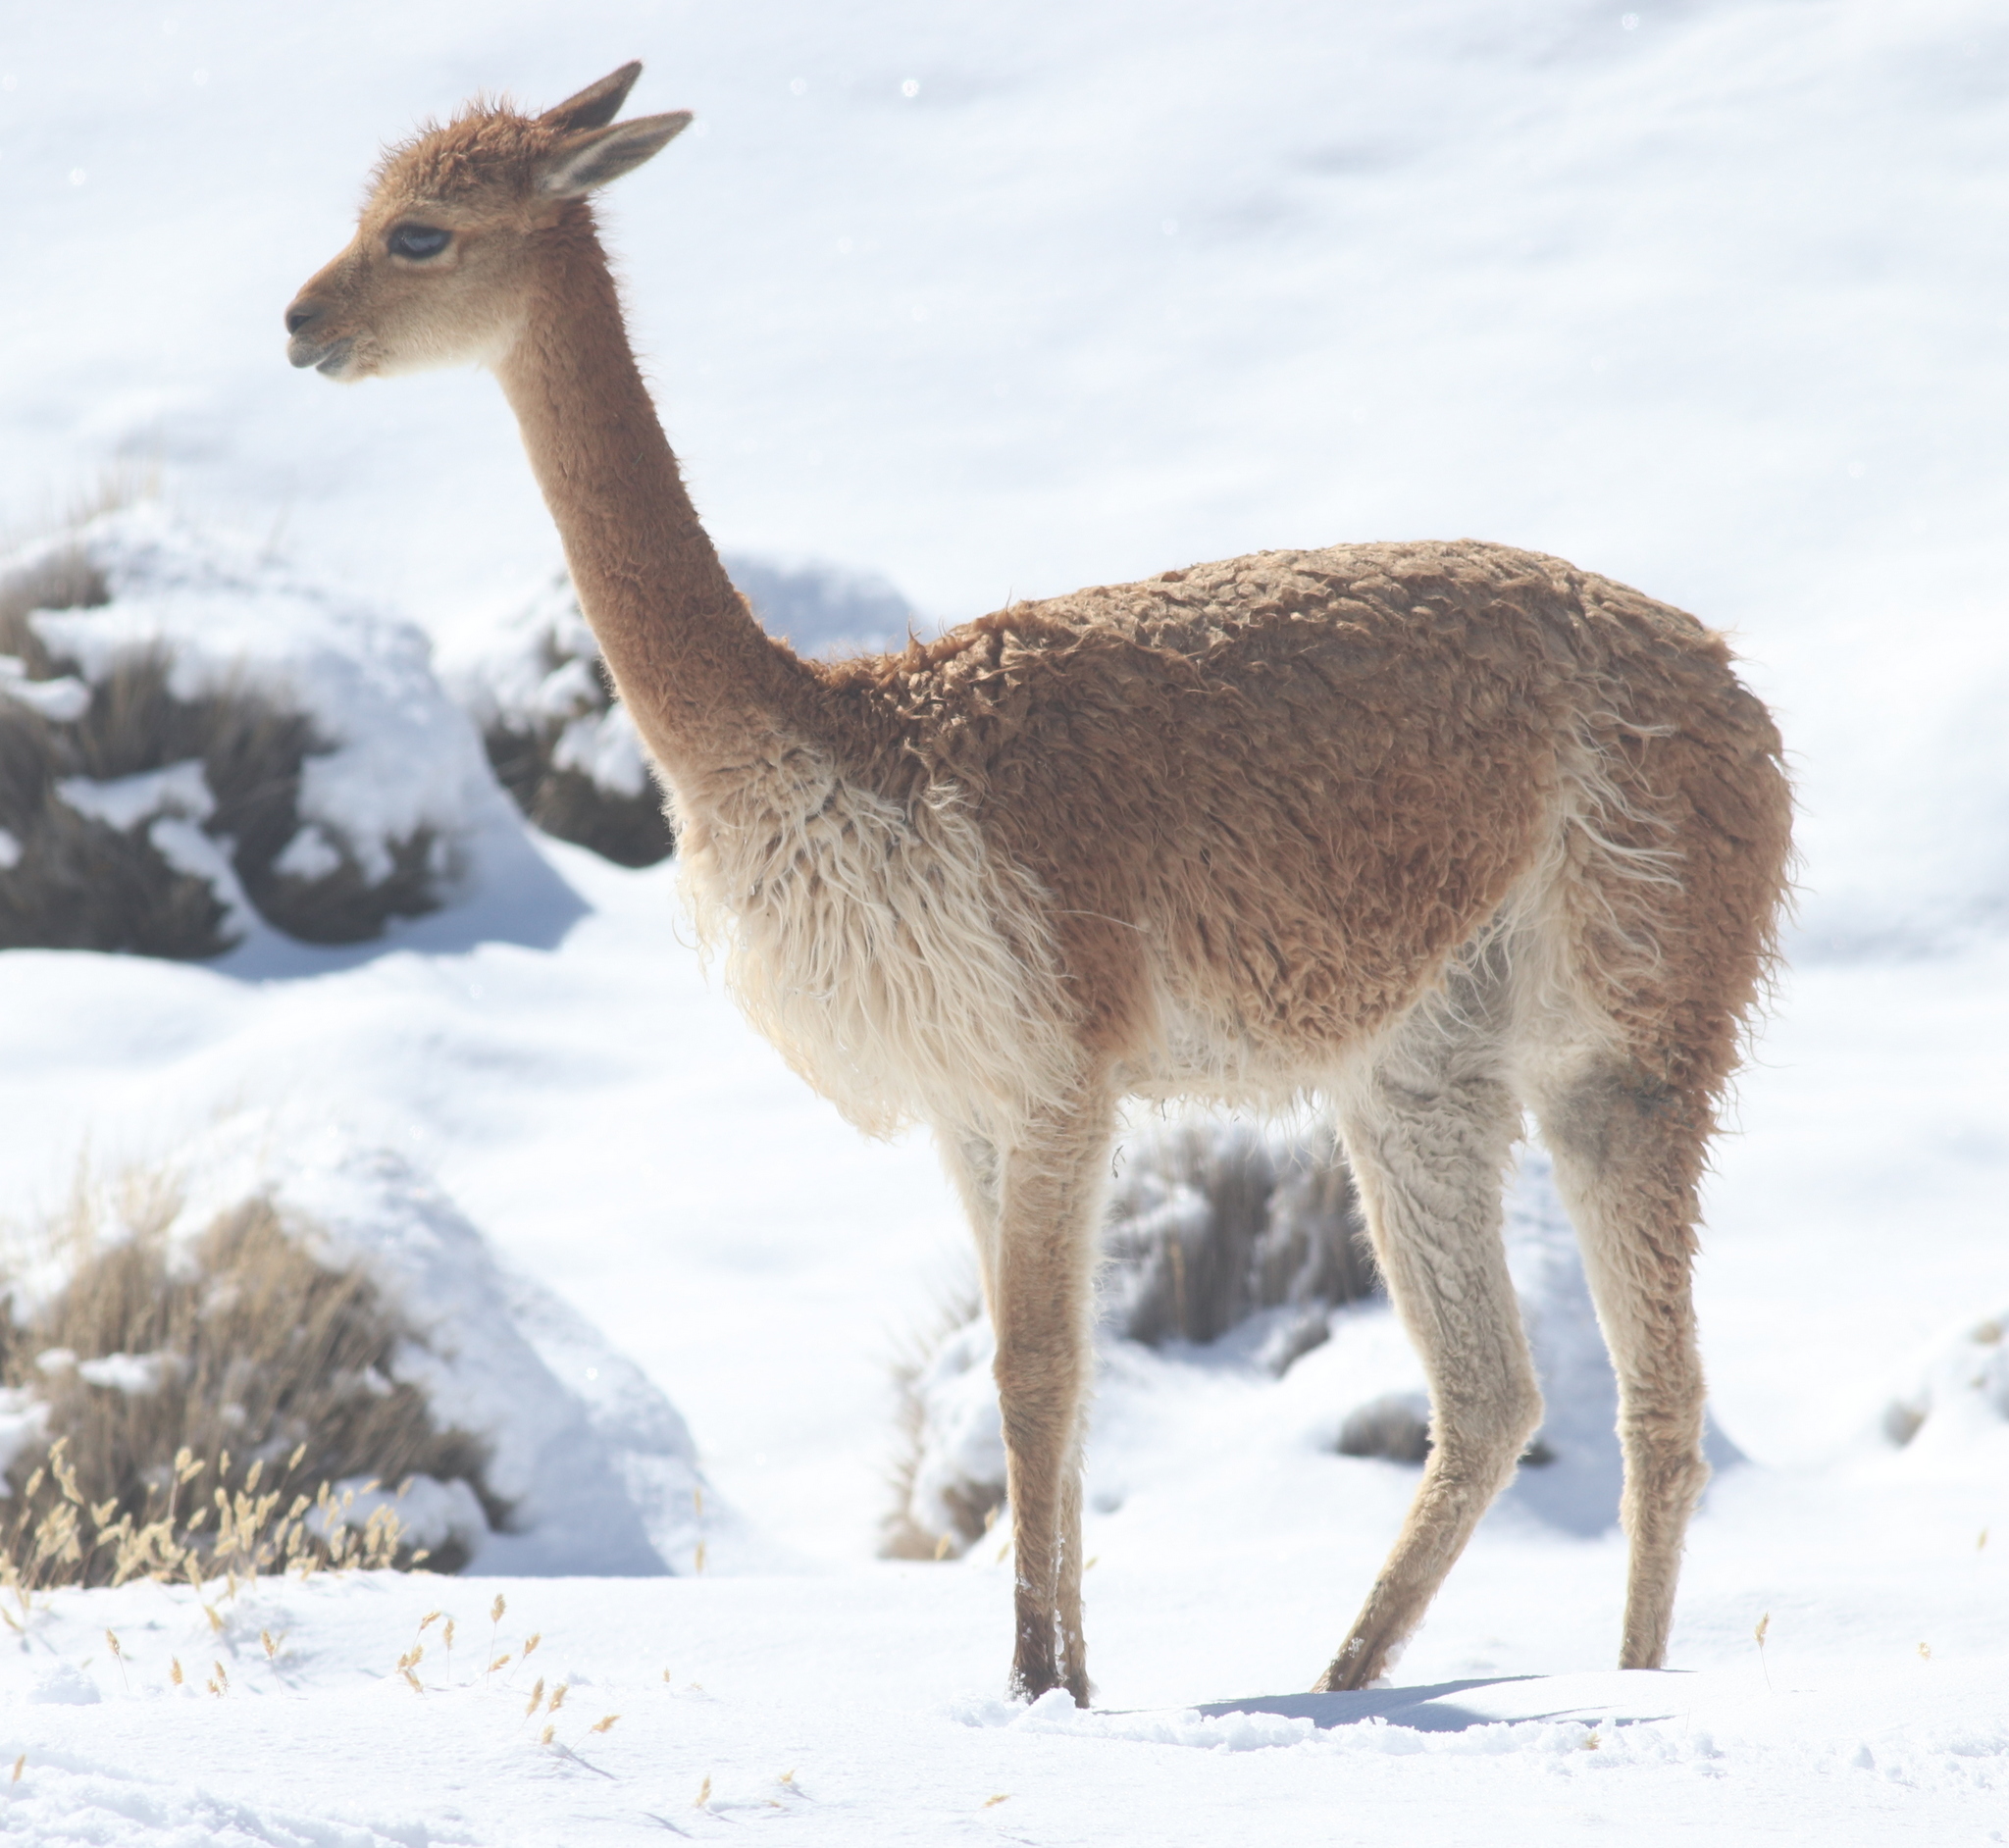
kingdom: Animalia
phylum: Chordata
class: Mammalia
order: Artiodactyla
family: Camelidae
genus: Vicugna
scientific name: Vicugna vicugna
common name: Vicugna
